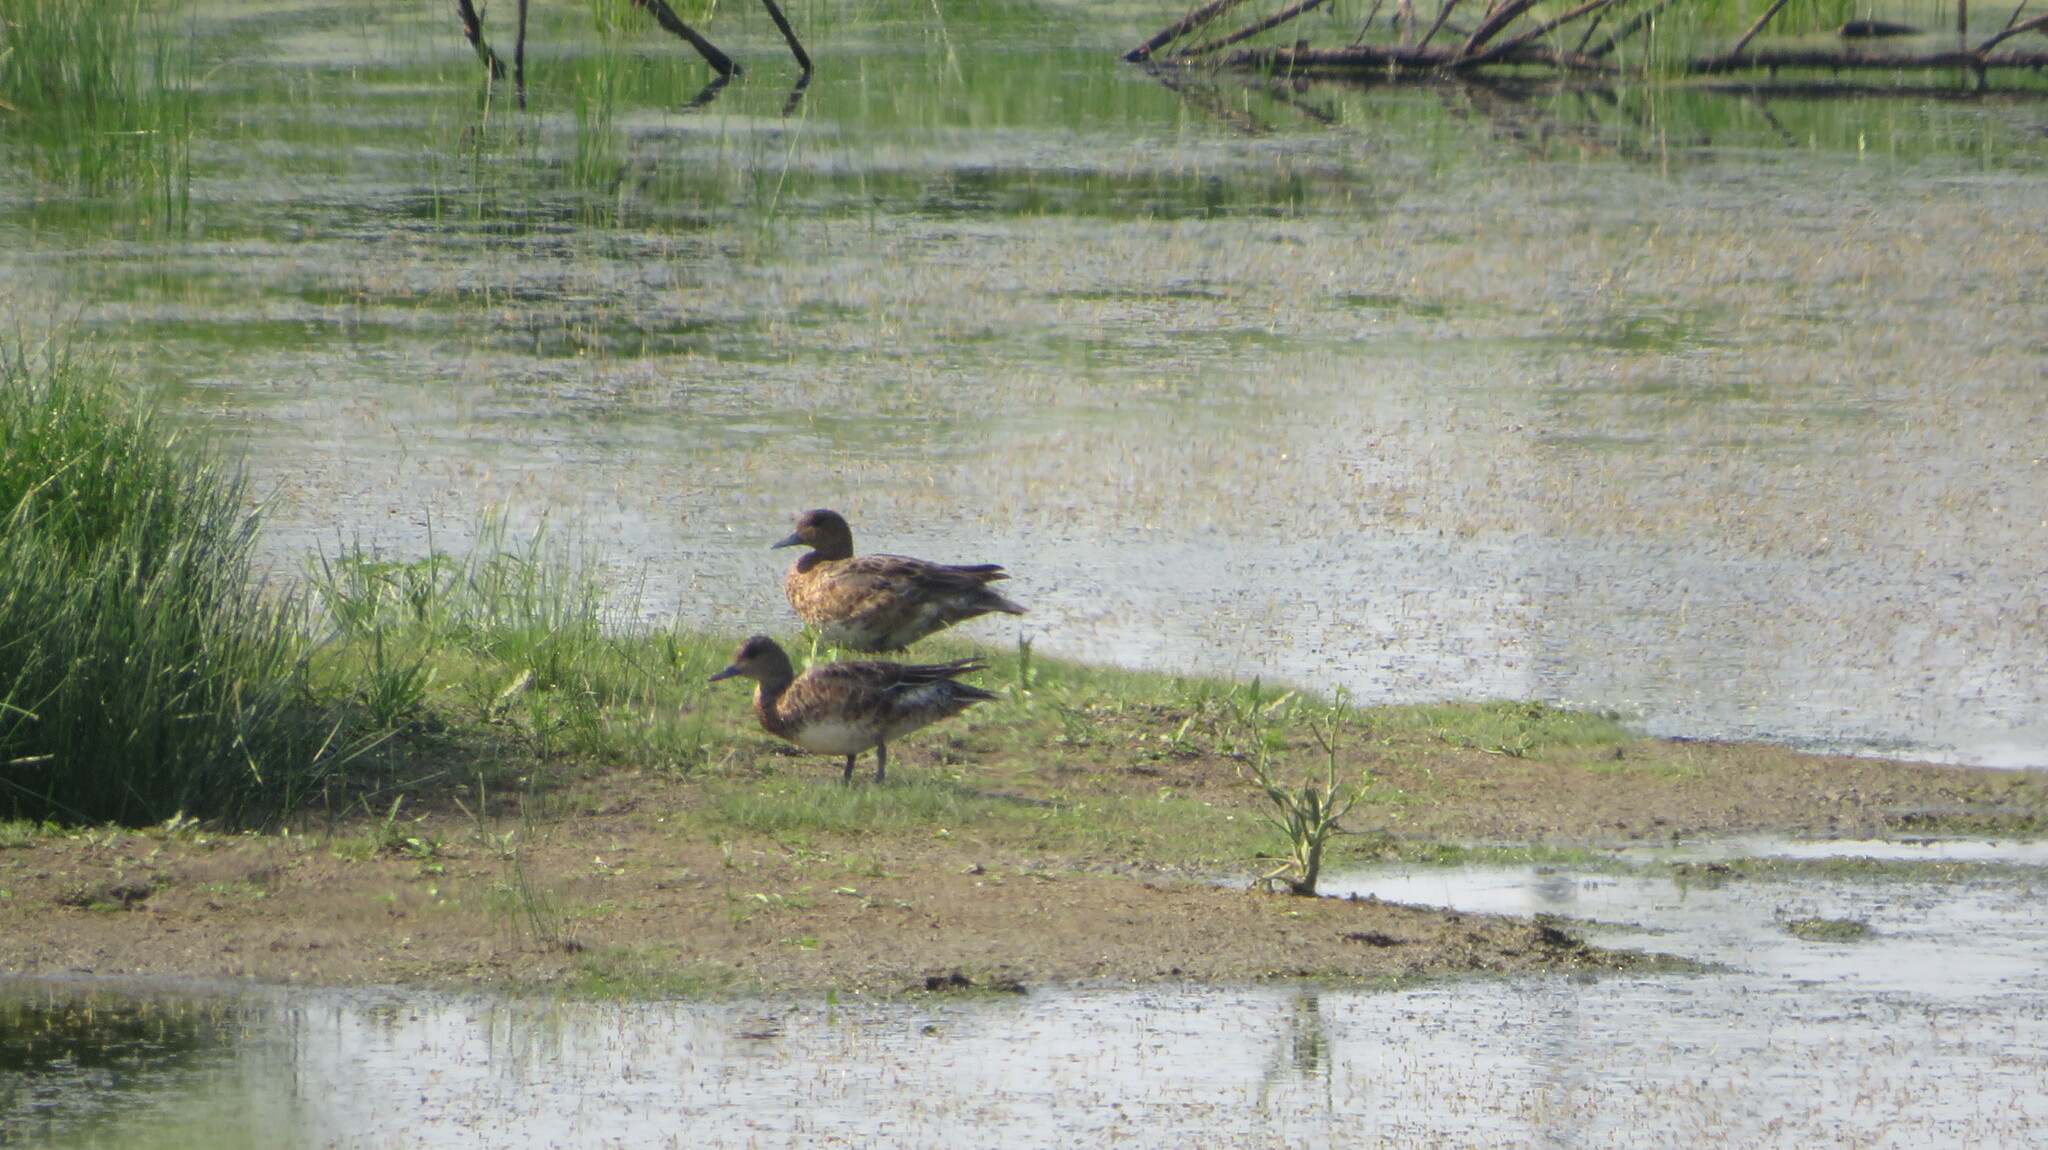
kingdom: Animalia
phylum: Chordata
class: Aves
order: Anseriformes
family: Anatidae
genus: Mareca
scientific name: Mareca penelope
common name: Eurasian wigeon
